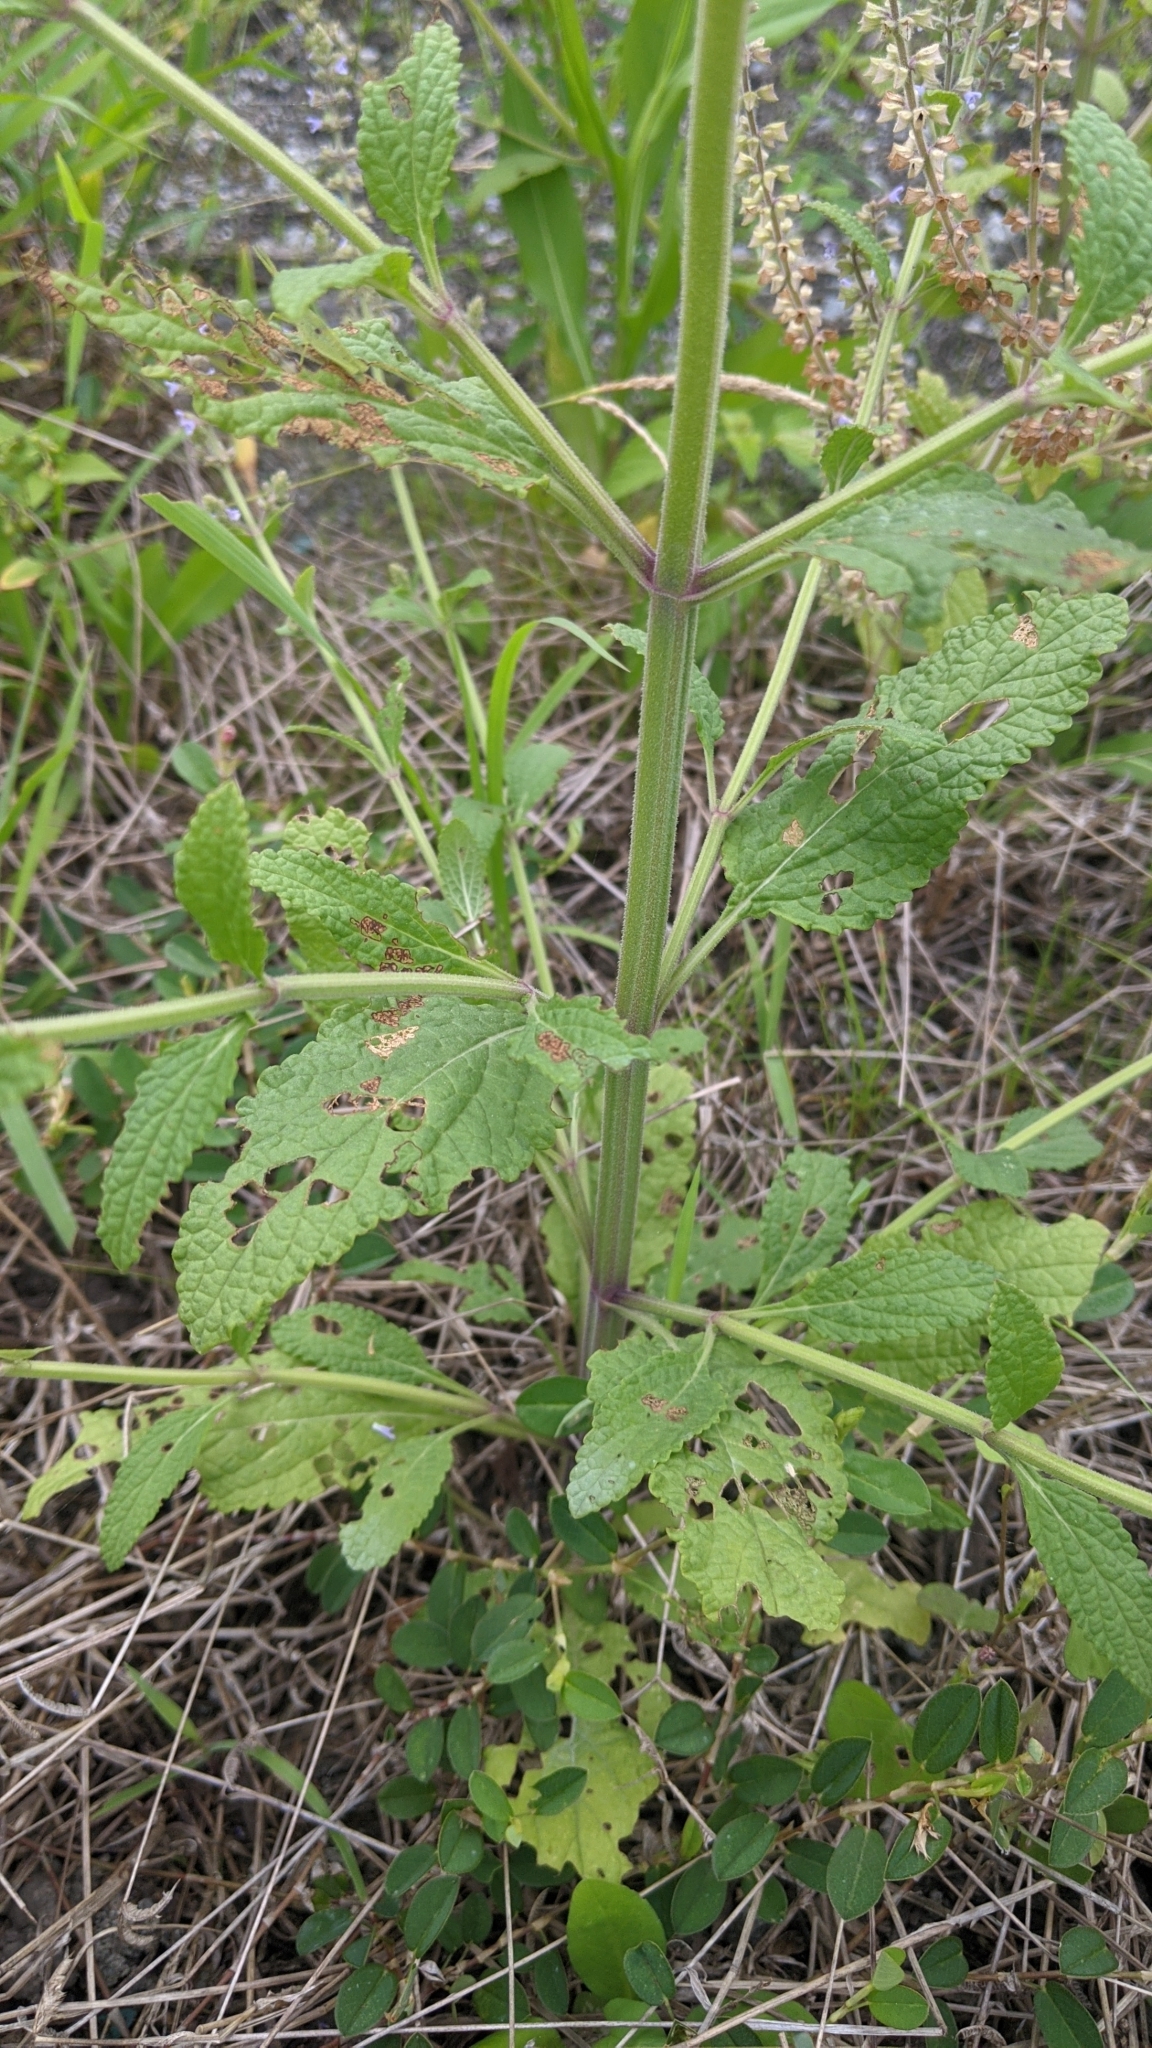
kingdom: Plantae
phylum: Tracheophyta
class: Magnoliopsida
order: Lamiales
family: Lamiaceae
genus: Salvia
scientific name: Salvia plebeia
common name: Australian sage
